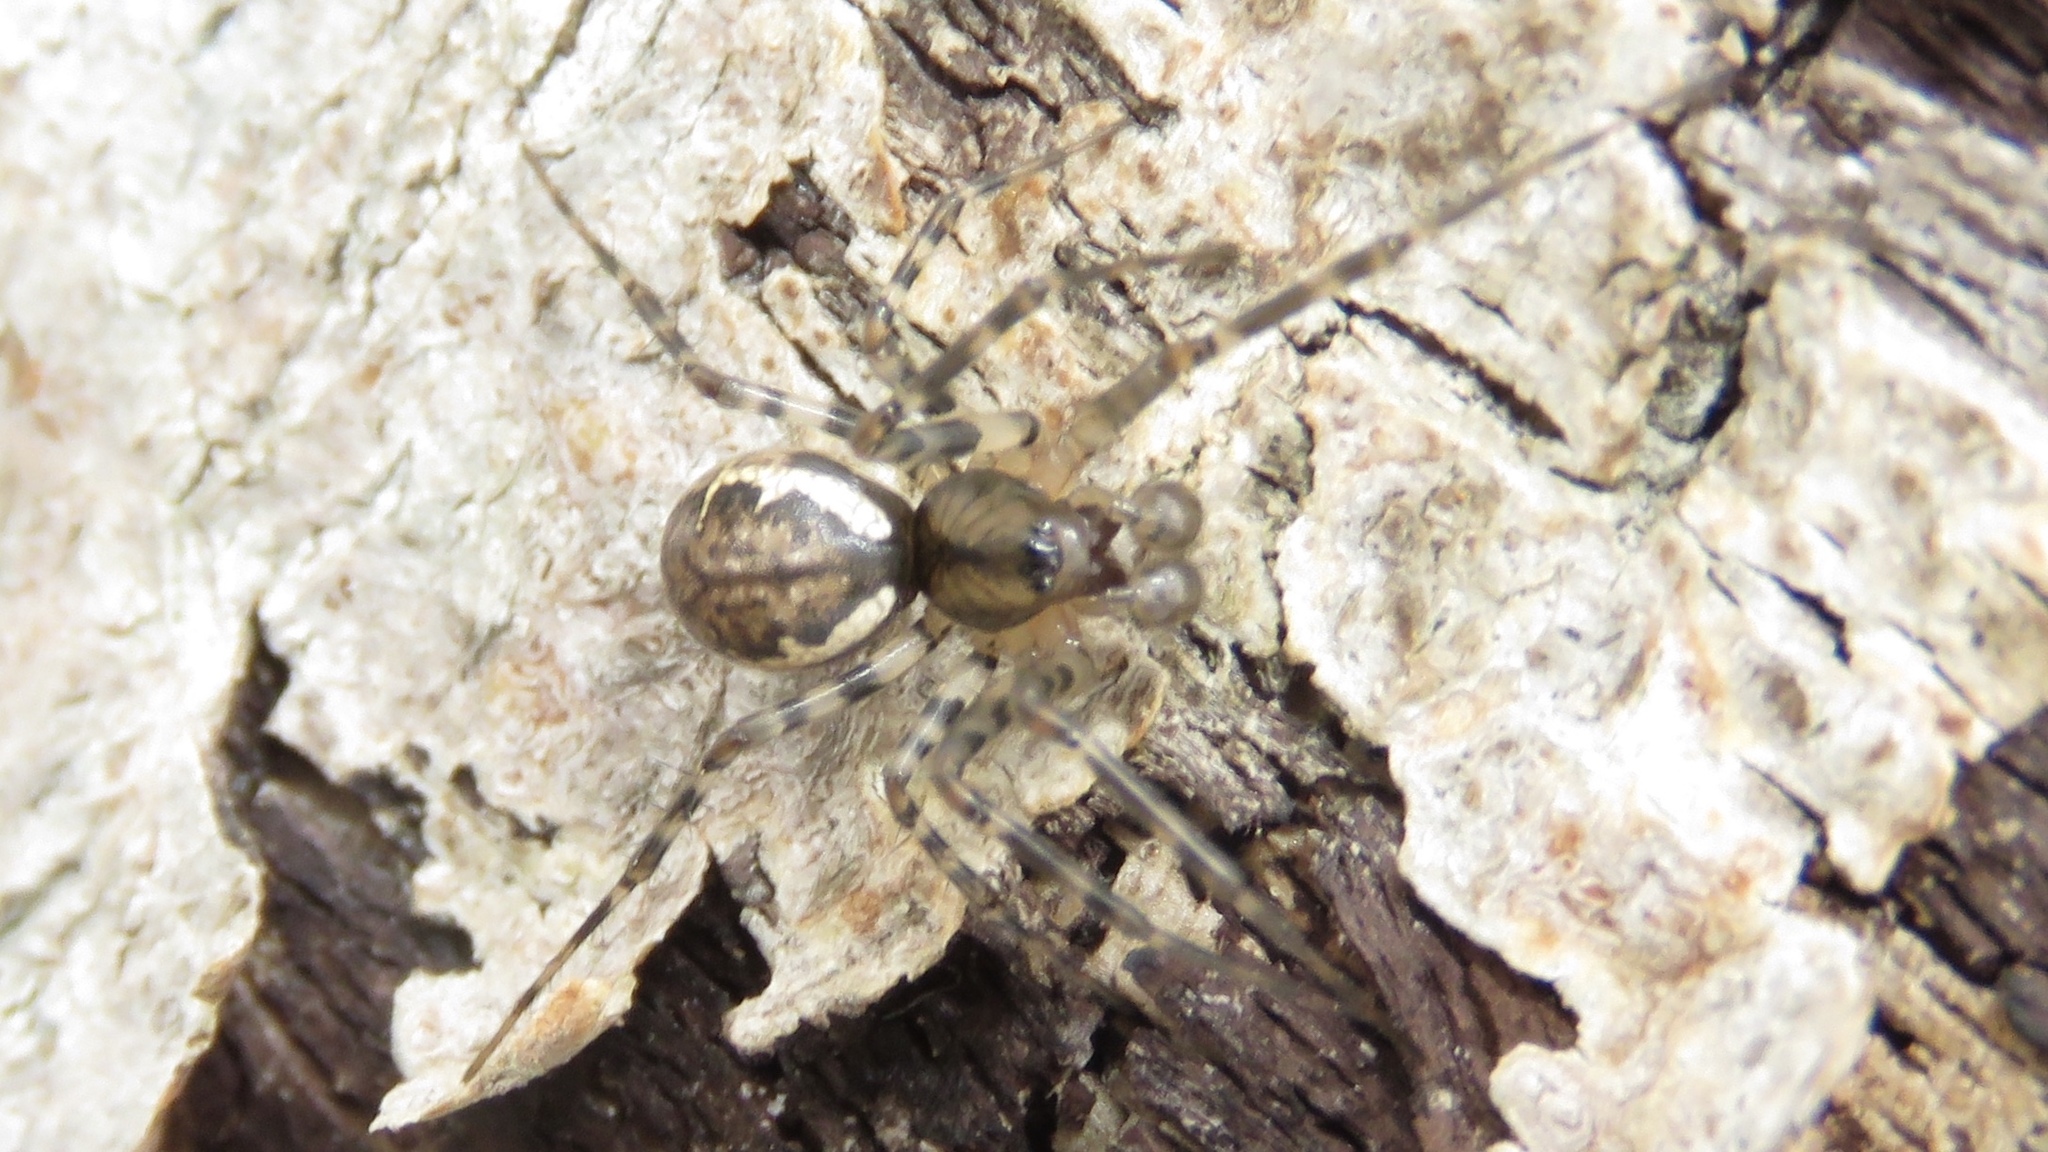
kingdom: Animalia
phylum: Arthropoda
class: Arachnida
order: Araneae
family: Linyphiidae
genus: Neriene
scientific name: Neriene montana
